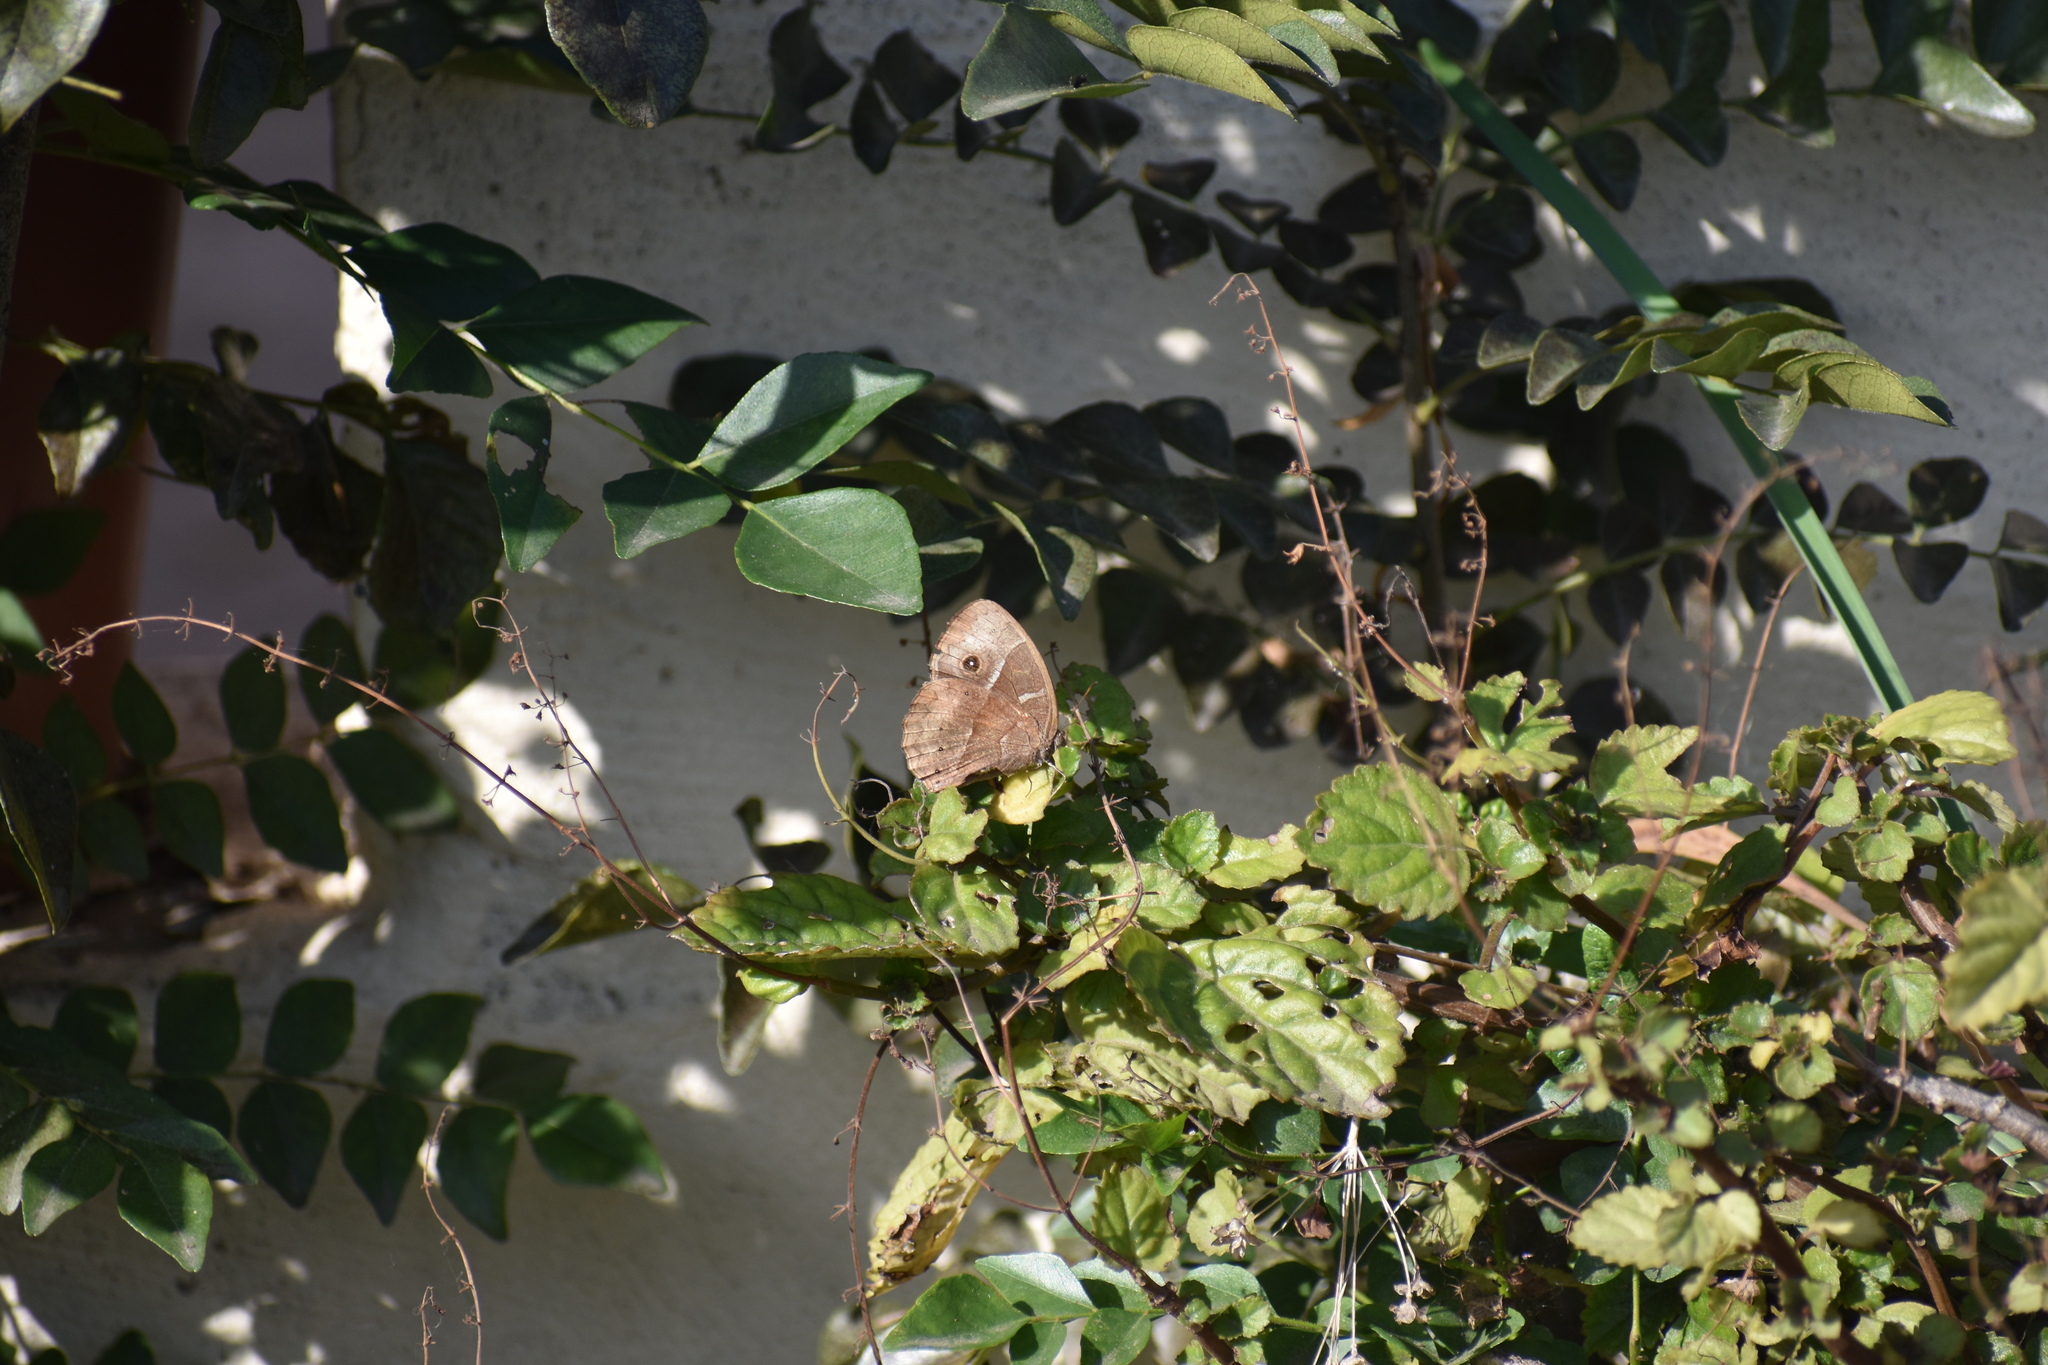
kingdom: Animalia
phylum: Arthropoda
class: Insecta
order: Lepidoptera
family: Nymphalidae
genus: Mycalesis
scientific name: Mycalesis rhacotis
